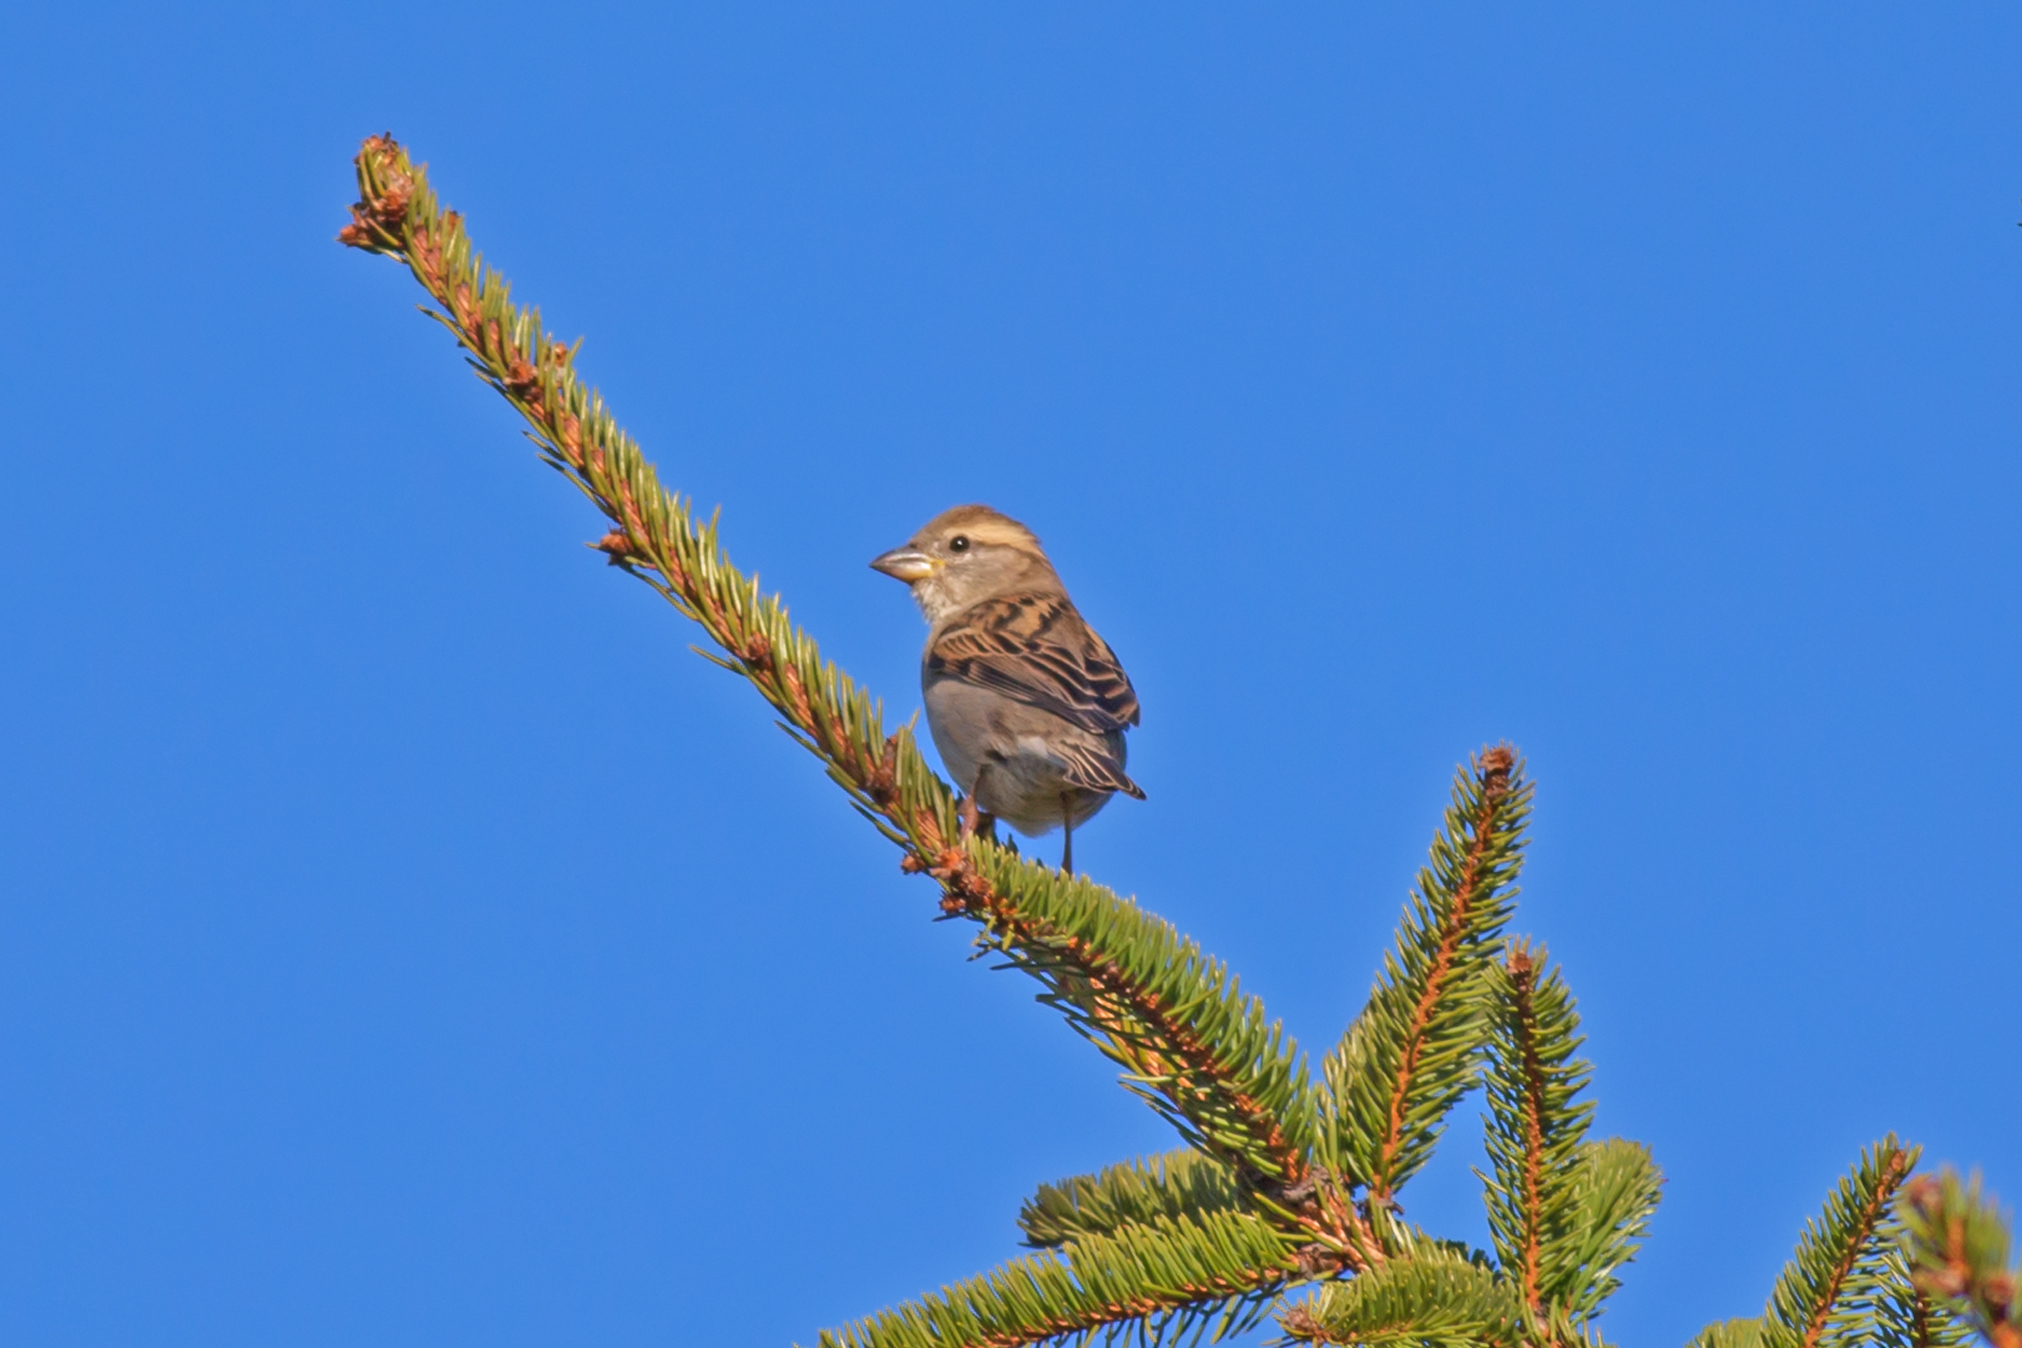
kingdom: Animalia
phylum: Chordata
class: Aves
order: Passeriformes
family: Passeridae
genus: Passer
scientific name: Passer domesticus
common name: House sparrow
